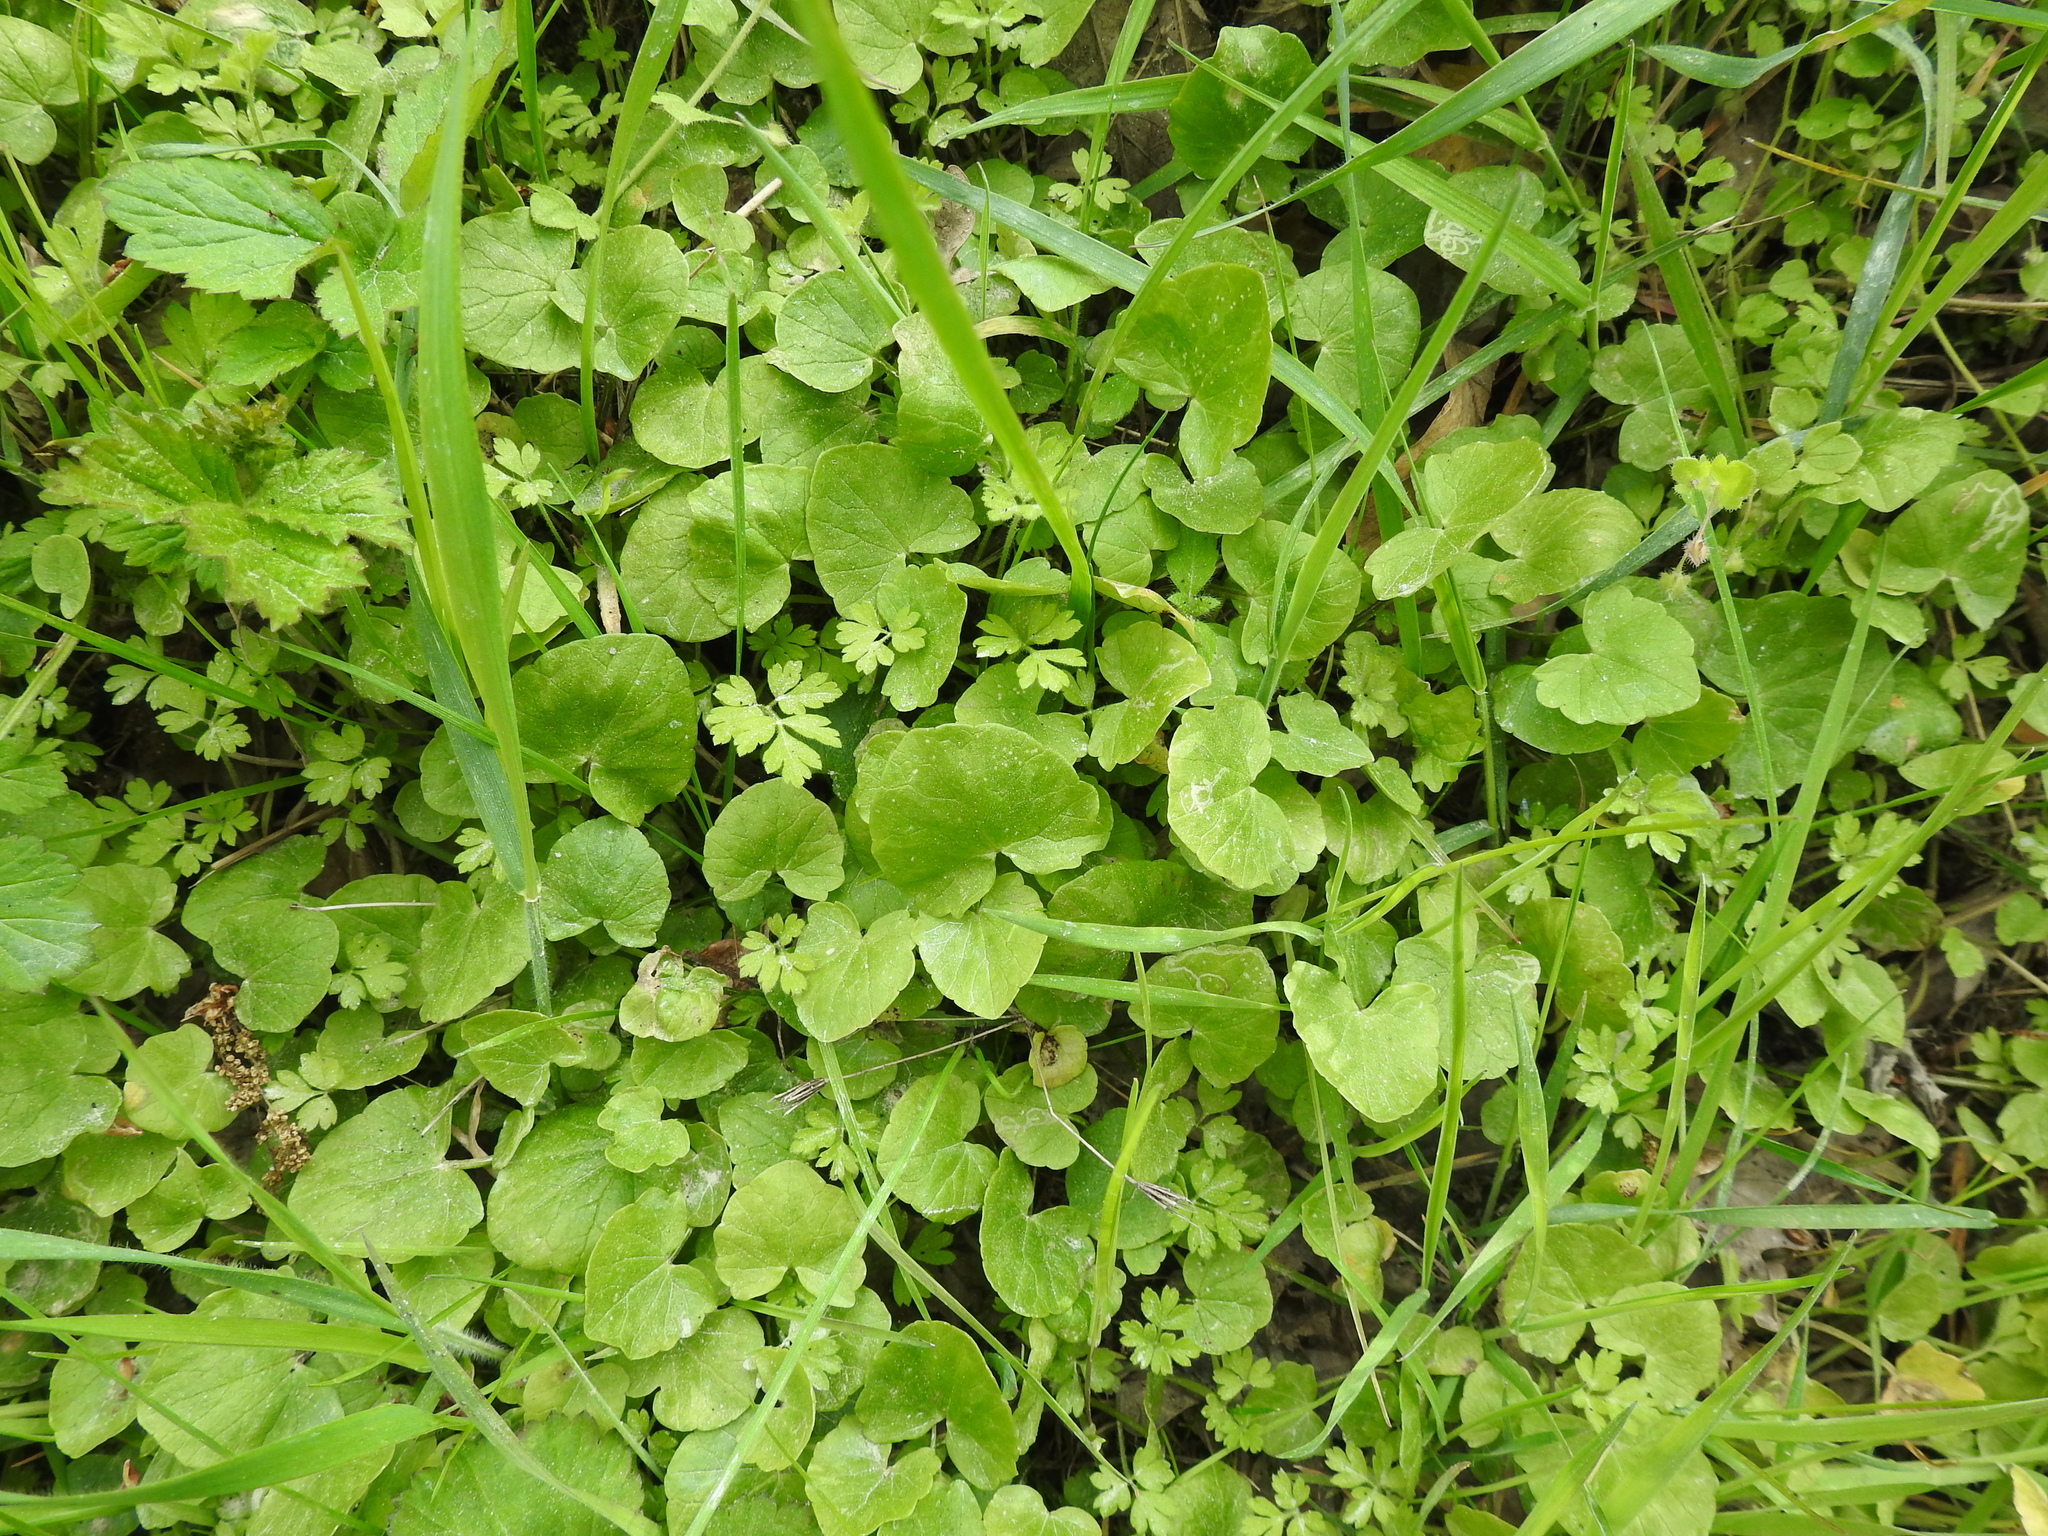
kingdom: Plantae
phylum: Tracheophyta
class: Magnoliopsida
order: Ranunculales
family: Ranunculaceae
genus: Ficaria
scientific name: Ficaria verna
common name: Lesser celandine
